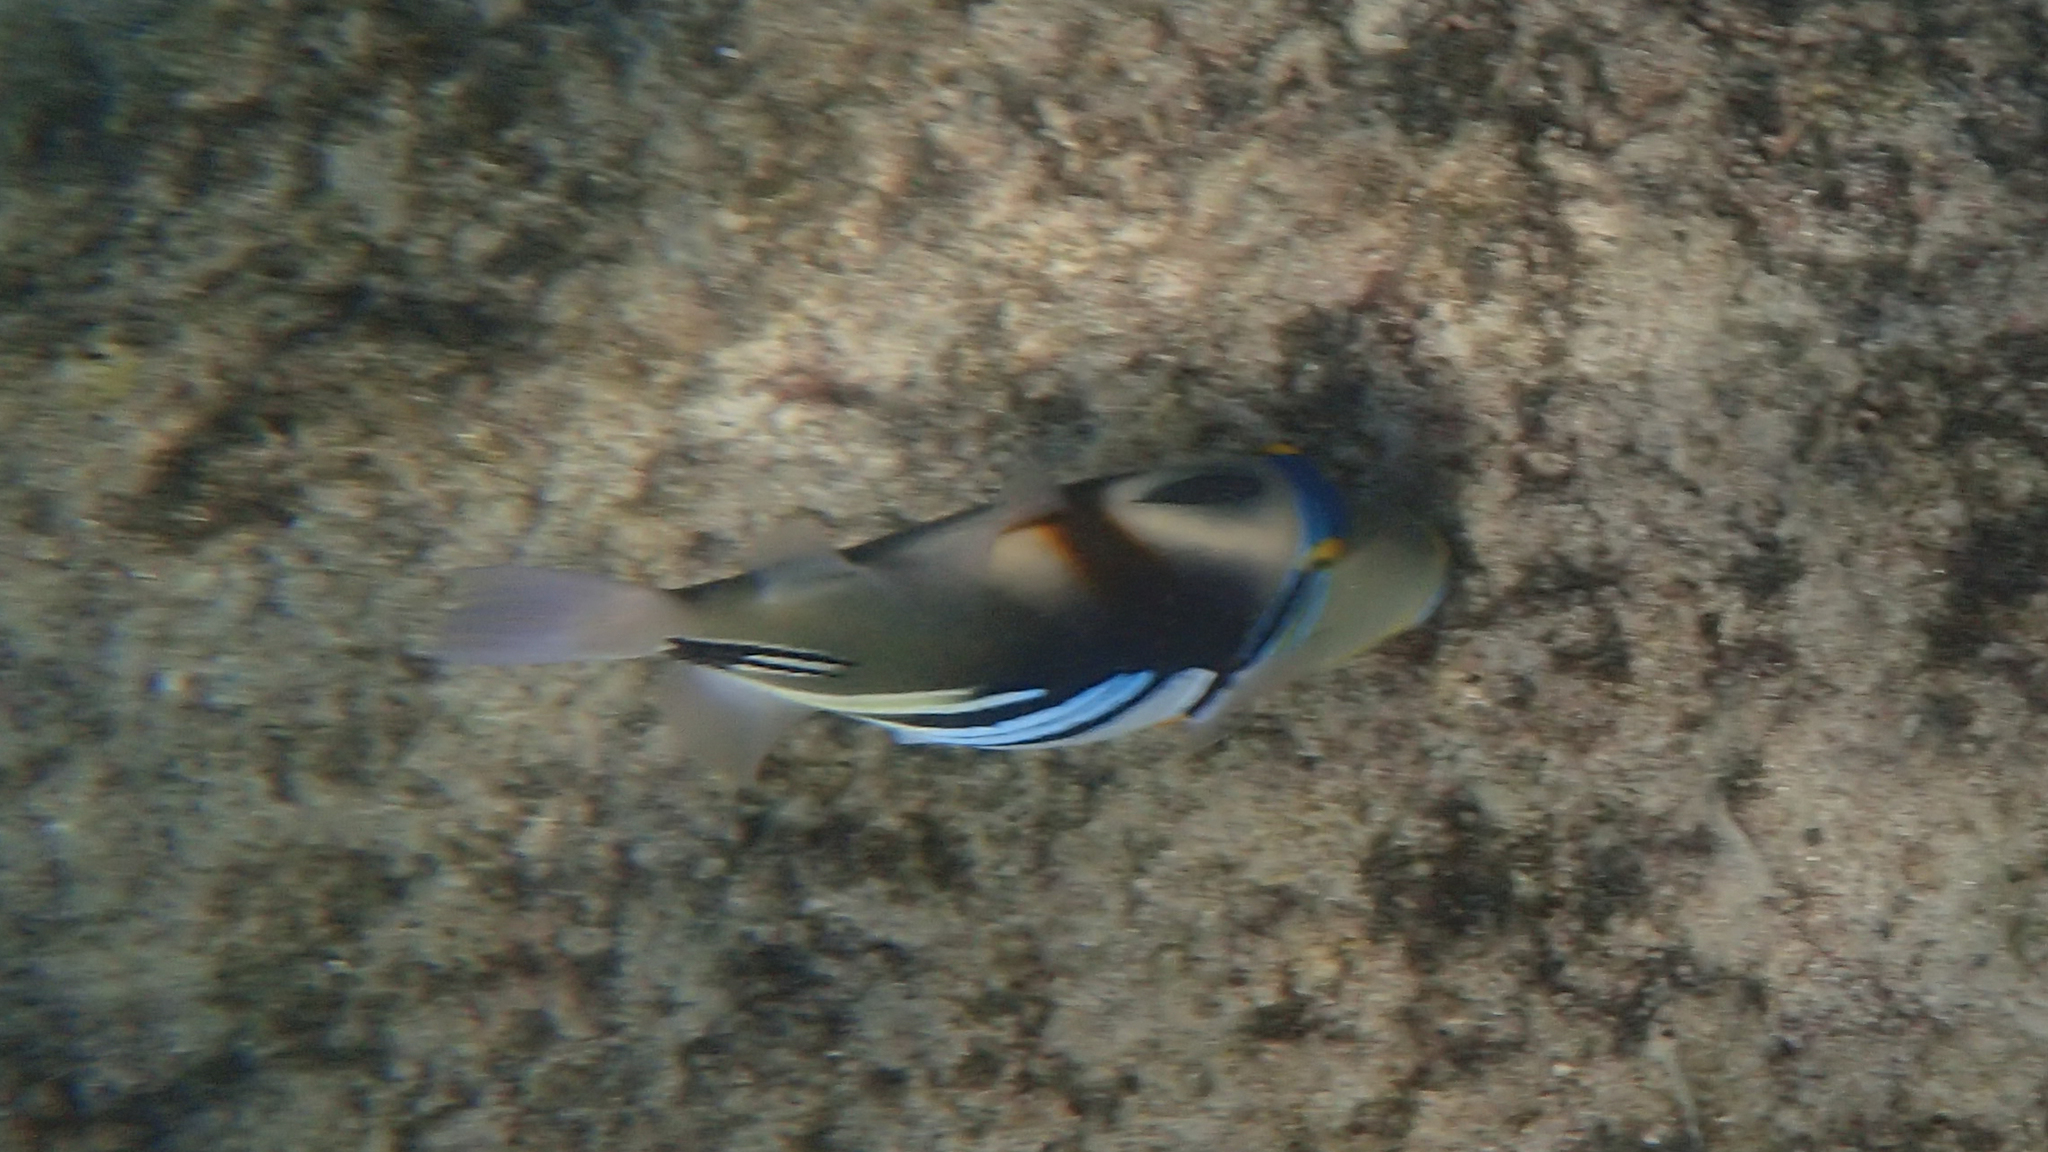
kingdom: Animalia
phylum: Chordata
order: Tetraodontiformes
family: Balistidae
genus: Rhinecanthus
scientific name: Rhinecanthus aculeatus
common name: White-banded triggerfish
